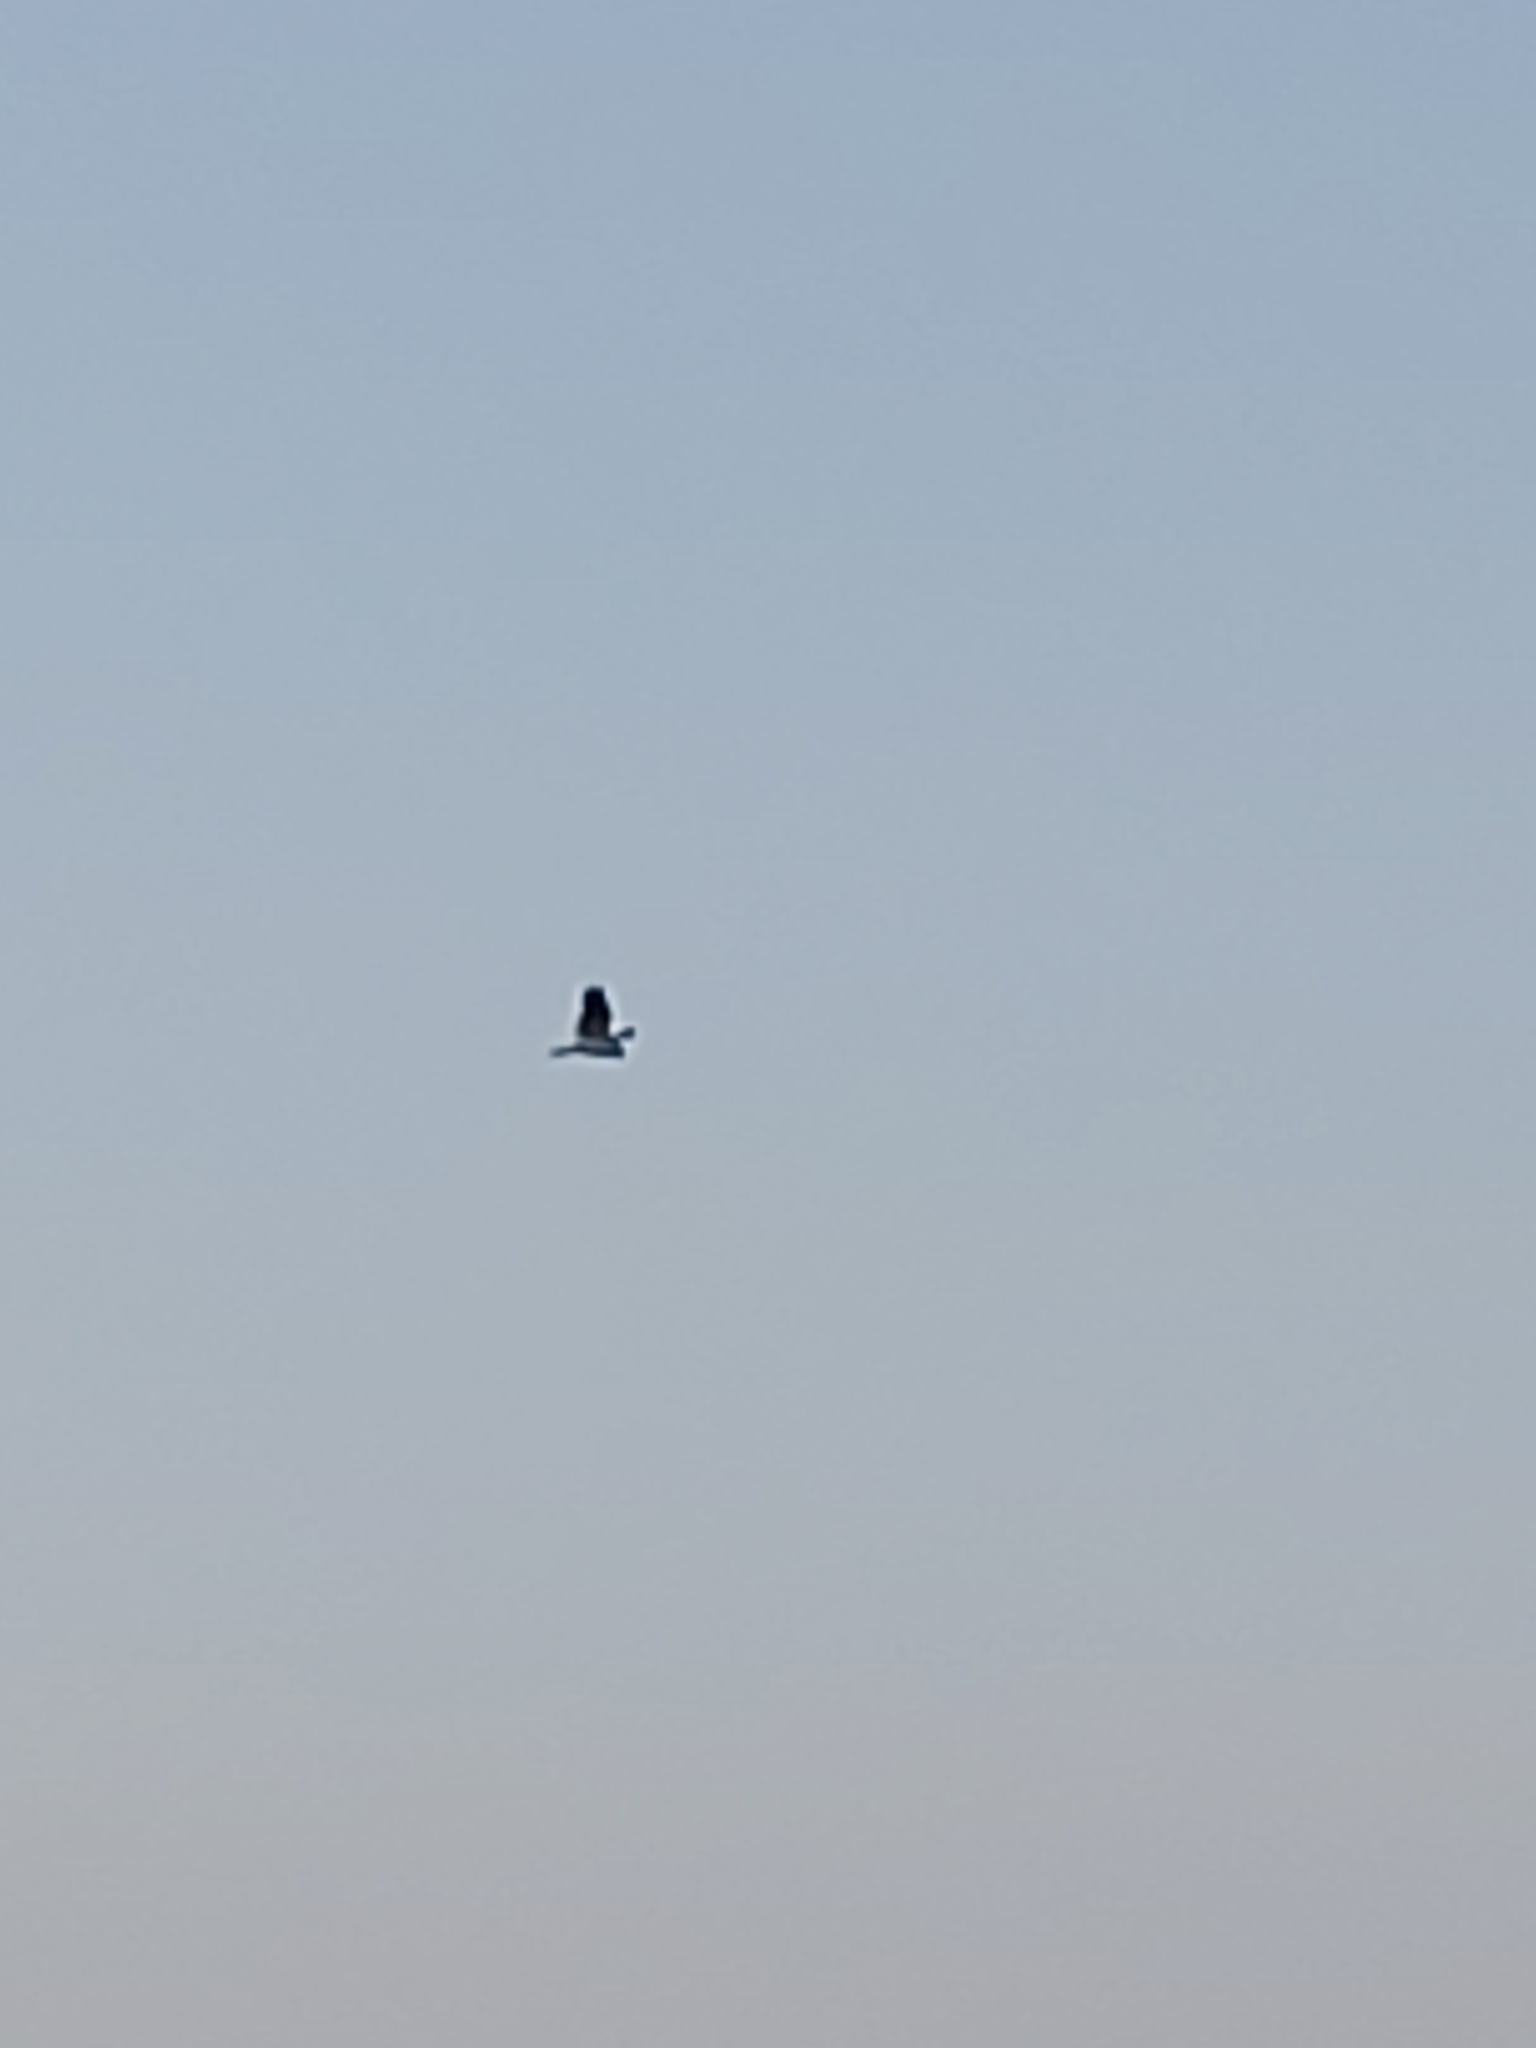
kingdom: Animalia
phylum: Chordata
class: Aves
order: Accipitriformes
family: Accipitridae
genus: Elanus
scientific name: Elanus axillaris
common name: Black-shouldered kite
